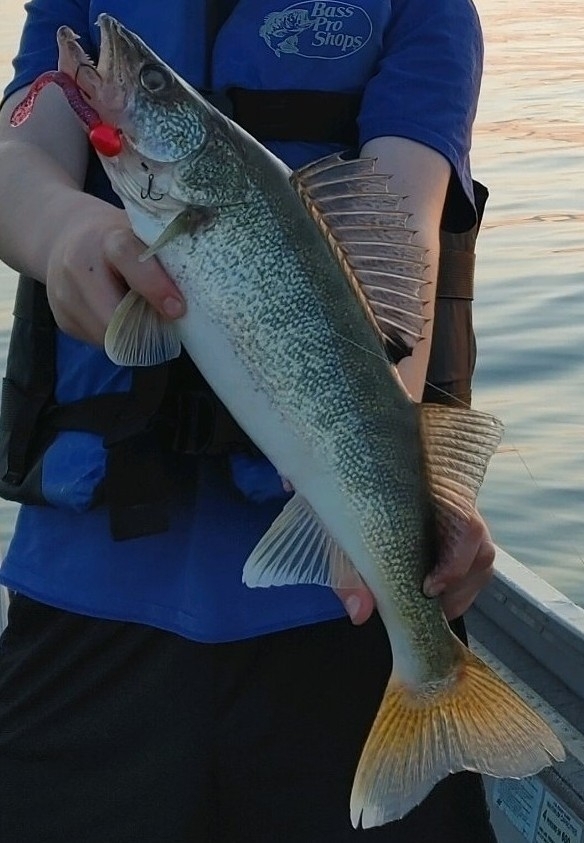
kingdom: Animalia
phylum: Chordata
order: Perciformes
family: Percidae
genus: Sander
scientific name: Sander vitreus
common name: Walleye
